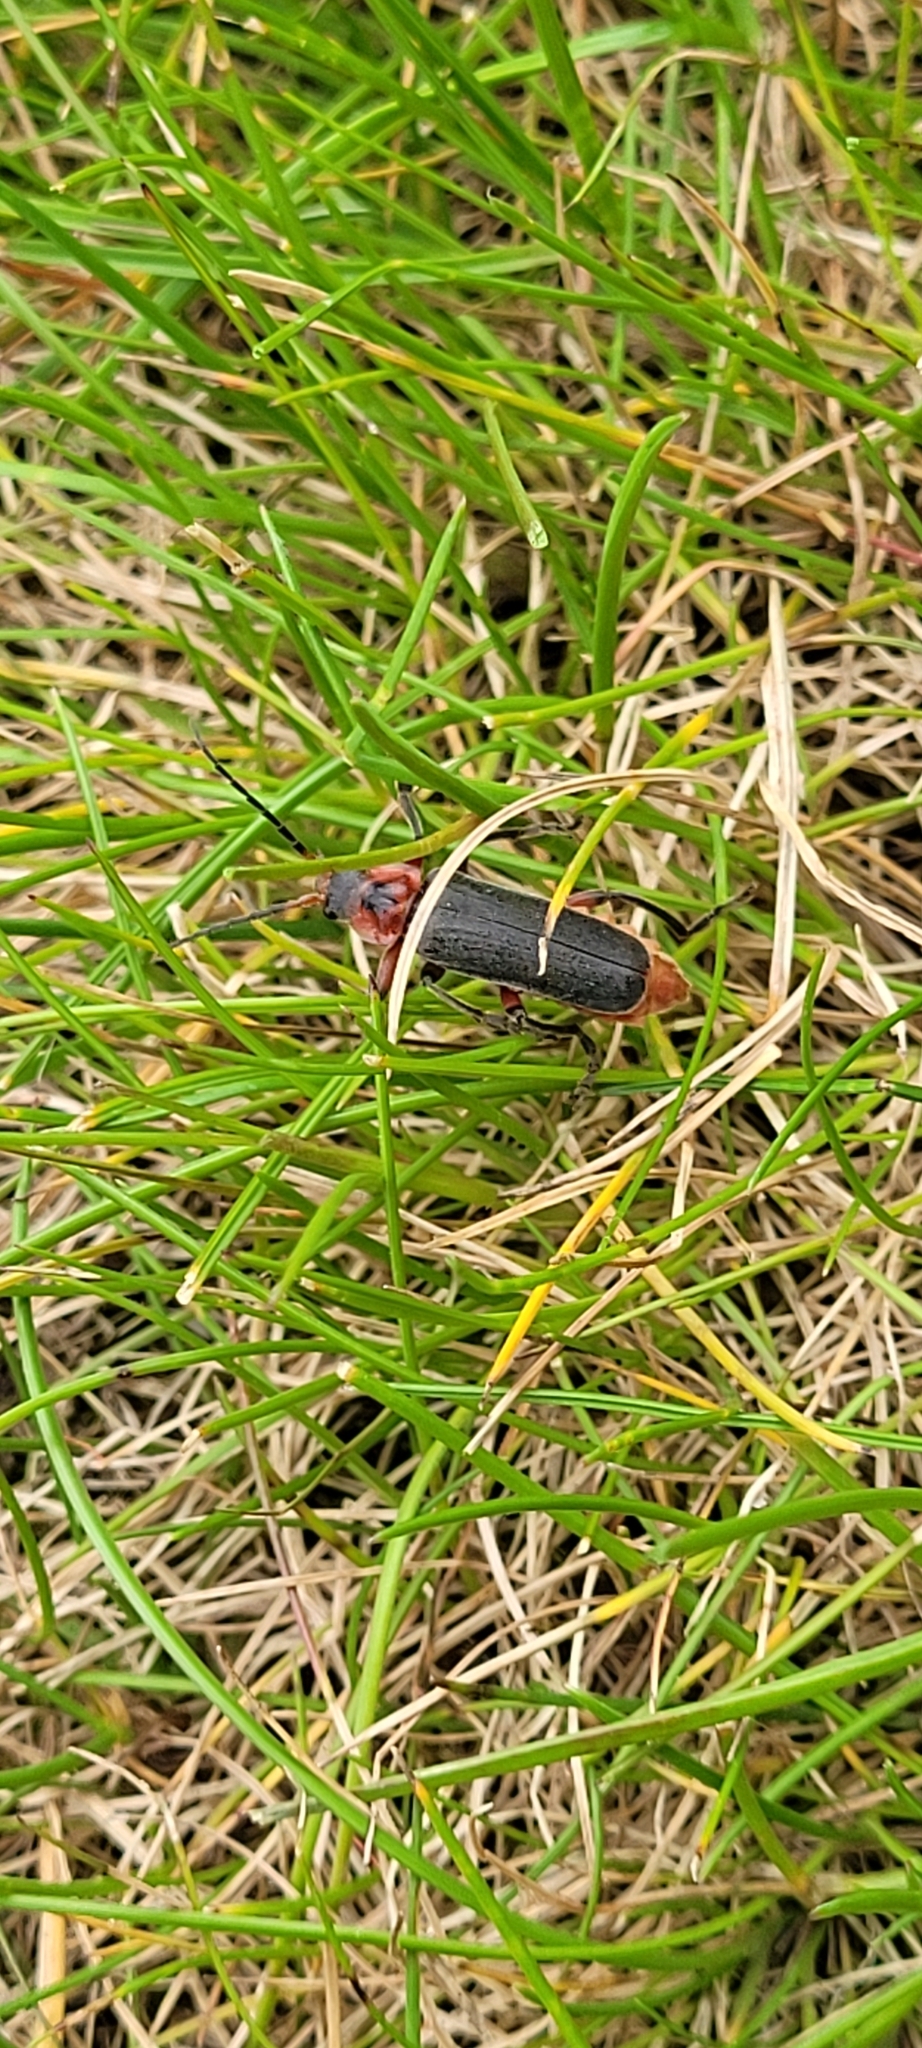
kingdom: Animalia
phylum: Arthropoda
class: Insecta
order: Coleoptera
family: Cantharidae
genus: Cantharis
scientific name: Cantharis rustica
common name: Soldier beetle
